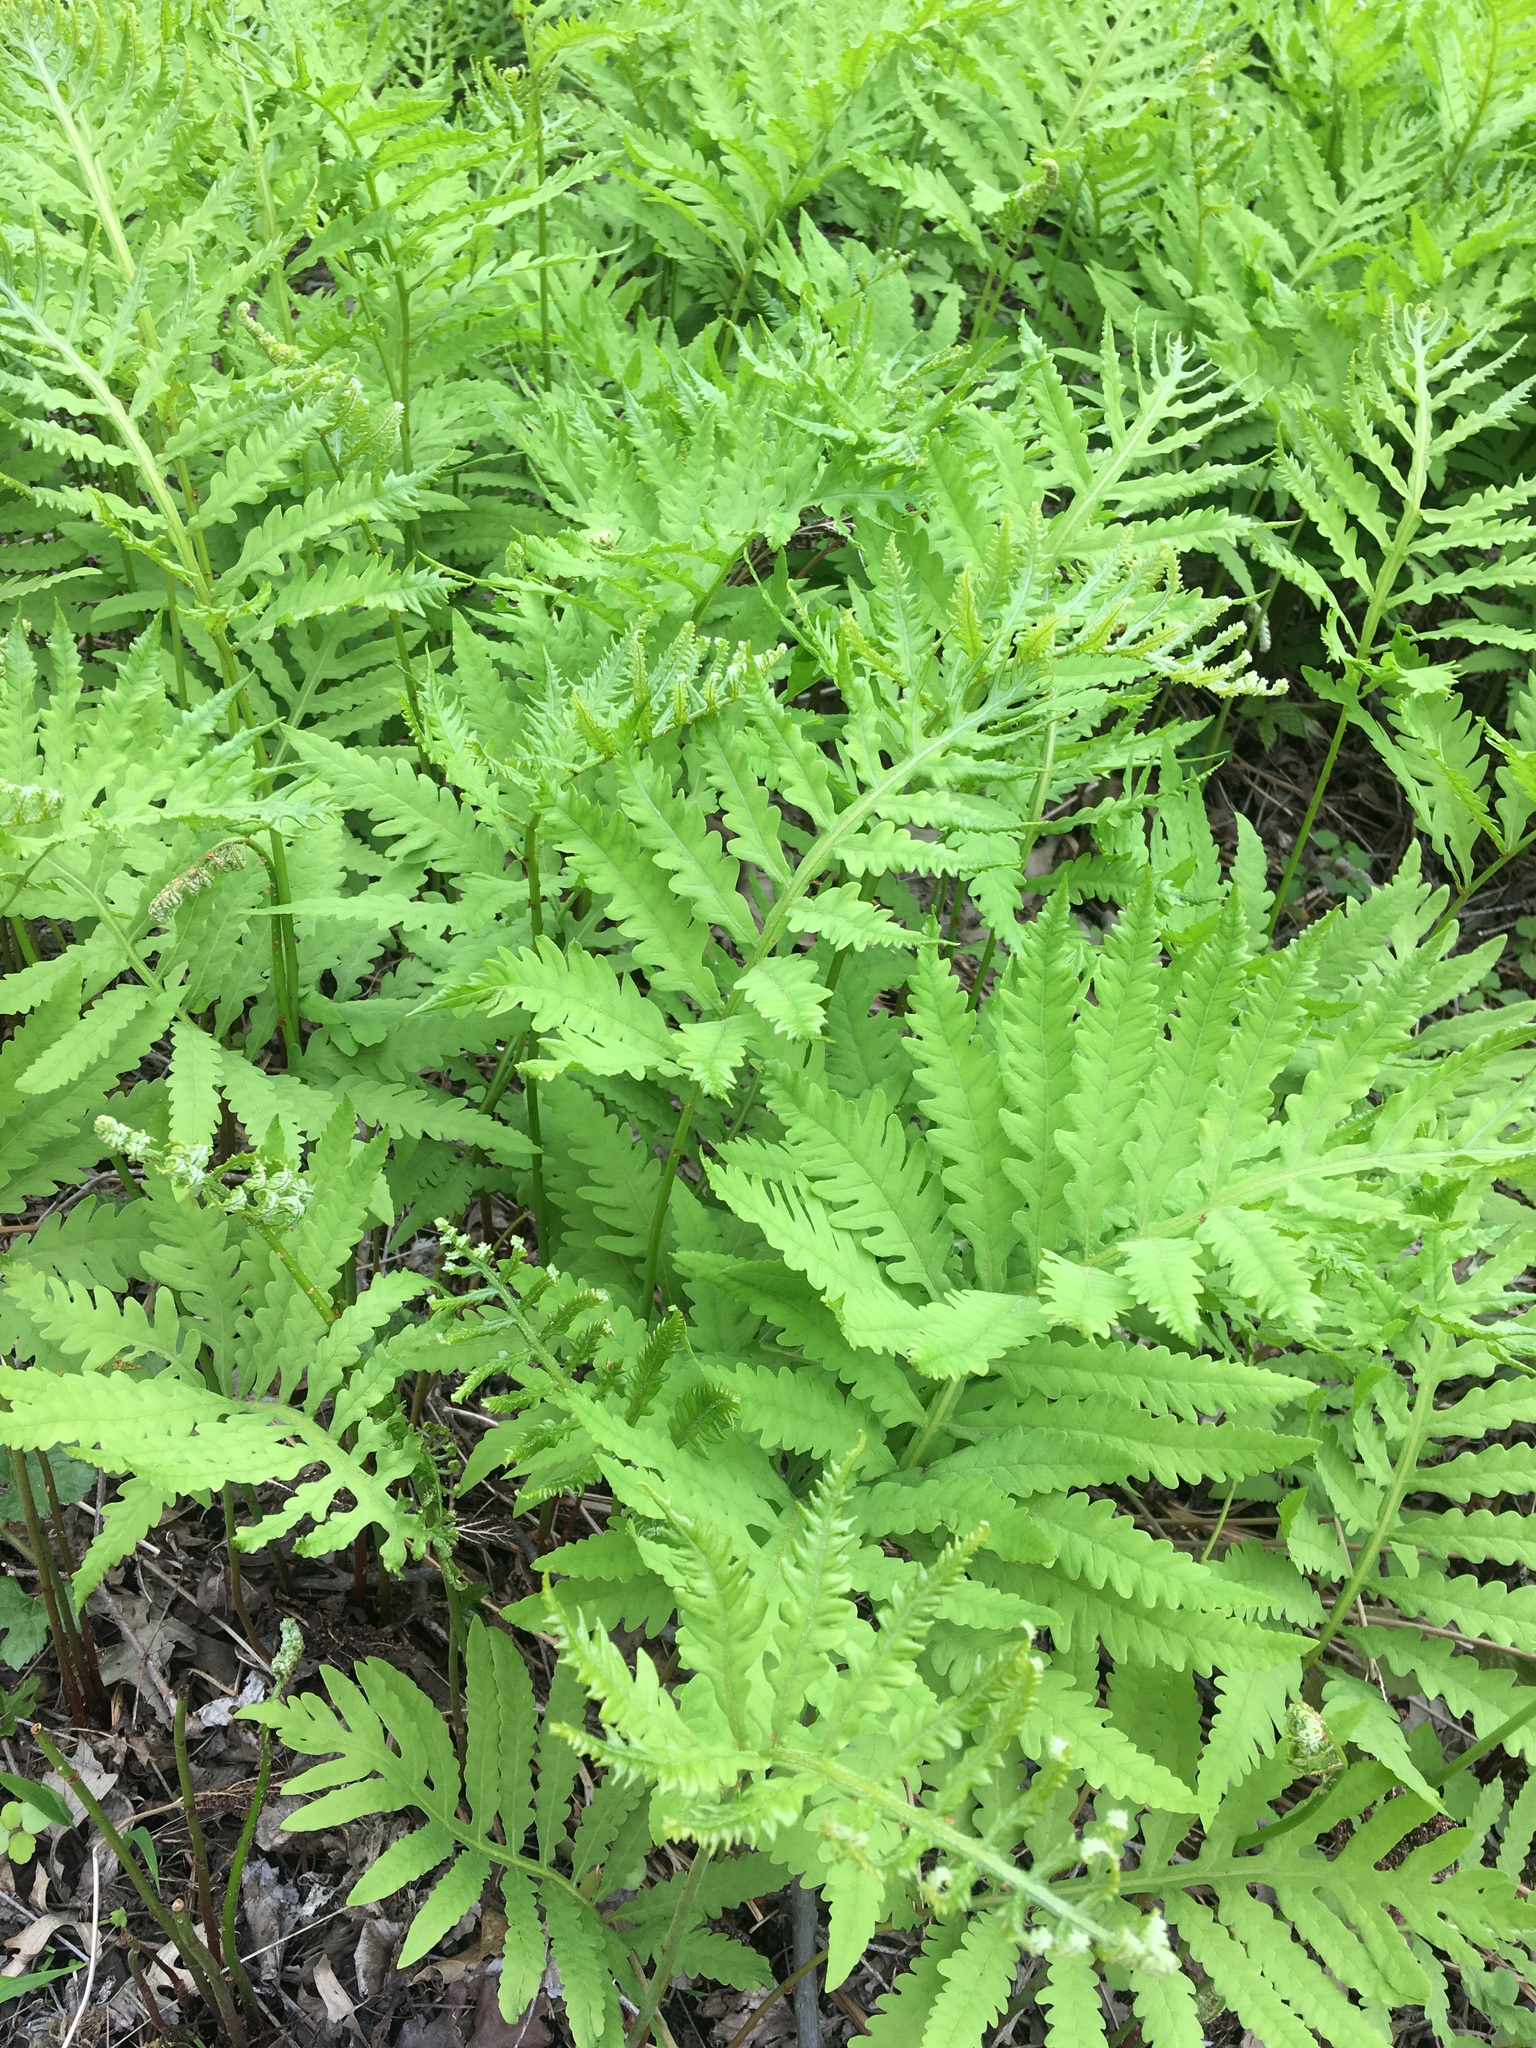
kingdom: Plantae
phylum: Tracheophyta
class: Polypodiopsida
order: Polypodiales
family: Onocleaceae
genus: Onoclea
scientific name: Onoclea sensibilis
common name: Sensitive fern
